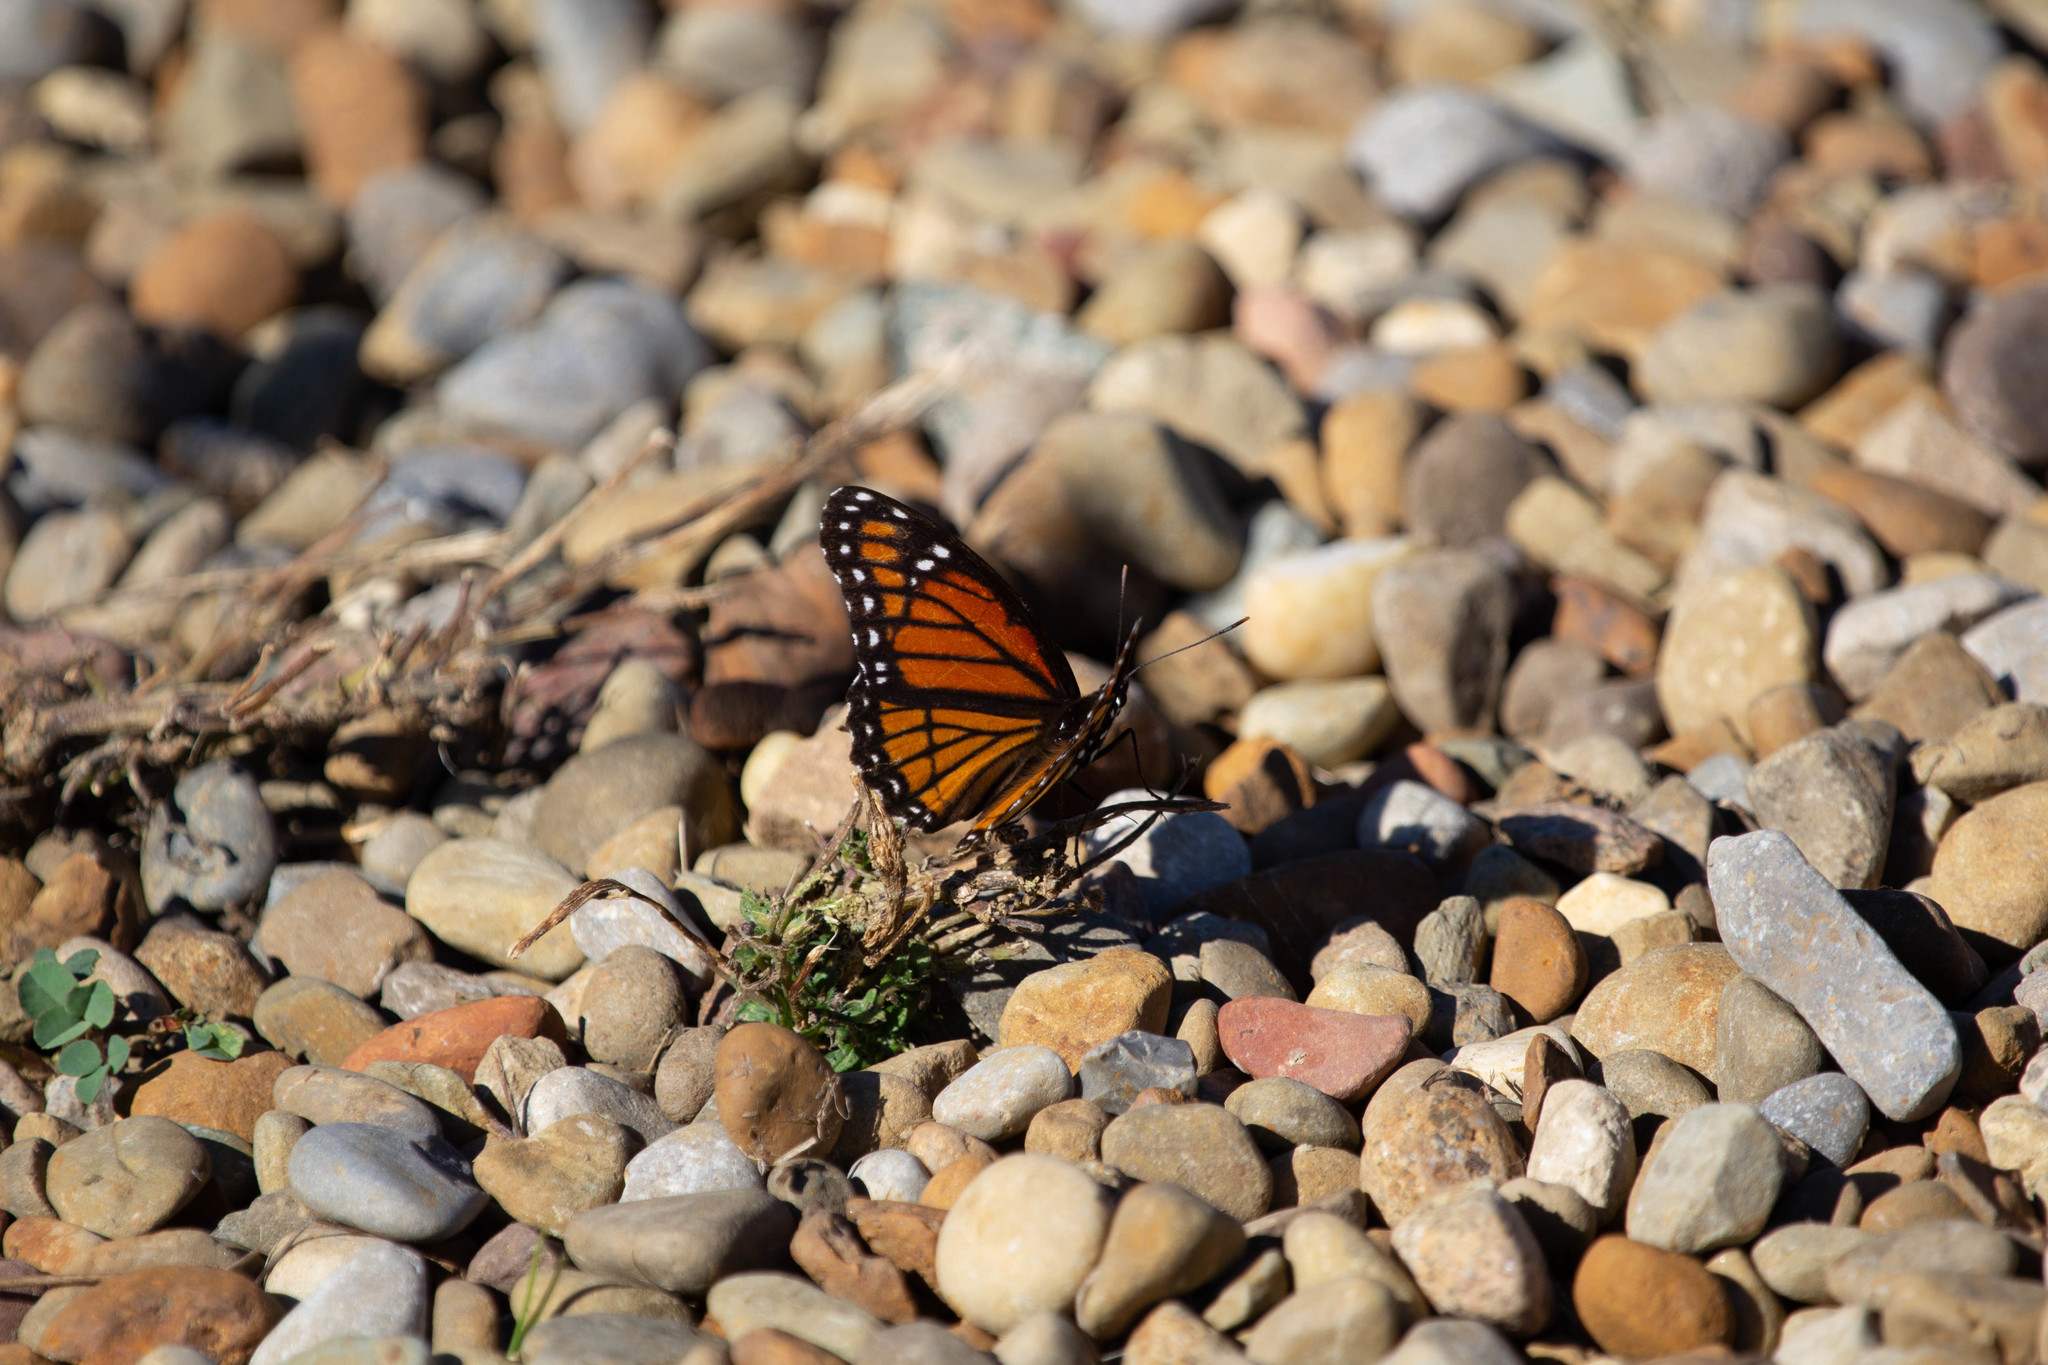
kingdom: Animalia
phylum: Arthropoda
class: Insecta
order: Lepidoptera
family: Nymphalidae
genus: Limenitis
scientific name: Limenitis archippus
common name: Viceroy
